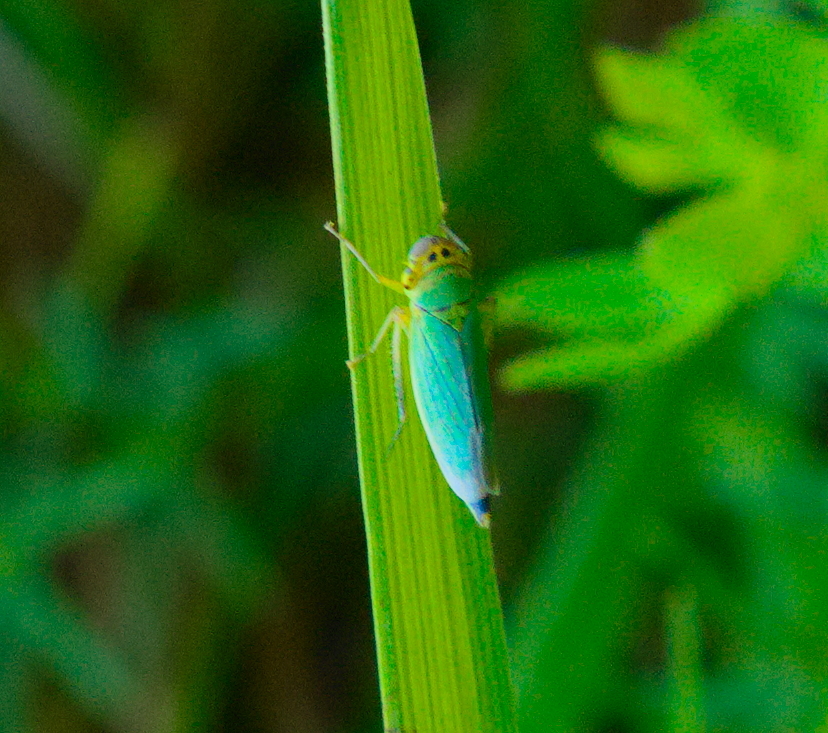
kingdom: Animalia
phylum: Arthropoda
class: Insecta
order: Hemiptera
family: Cicadellidae
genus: Cicadella
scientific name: Cicadella viridis
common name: Leafhopper
